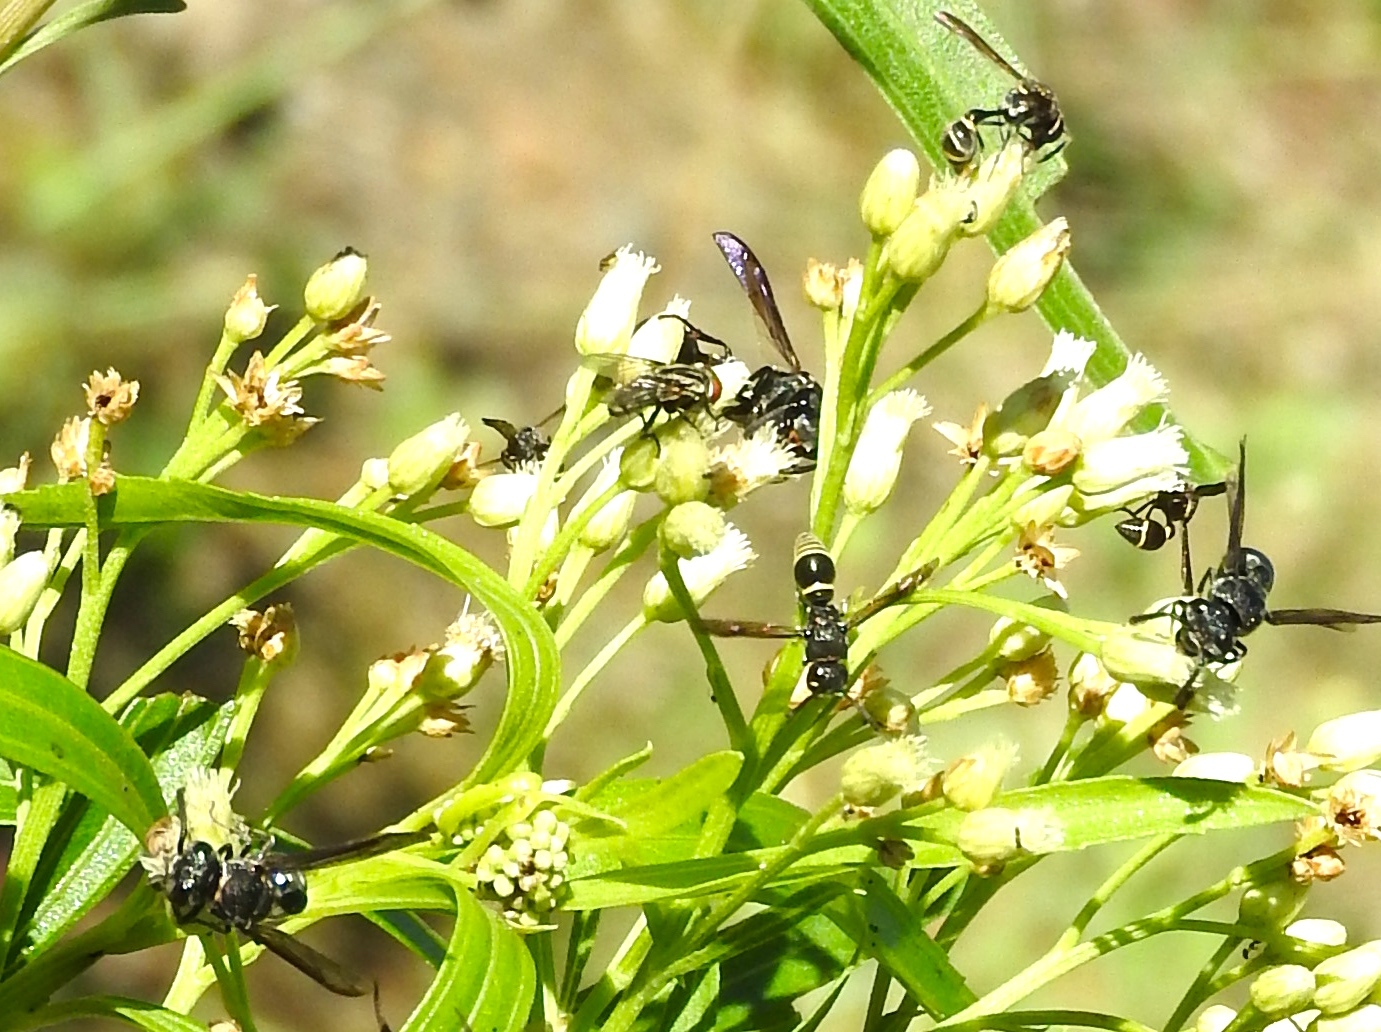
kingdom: Animalia
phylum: Arthropoda
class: Insecta
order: Hymenoptera
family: Eumenidae
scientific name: Eumenidae
